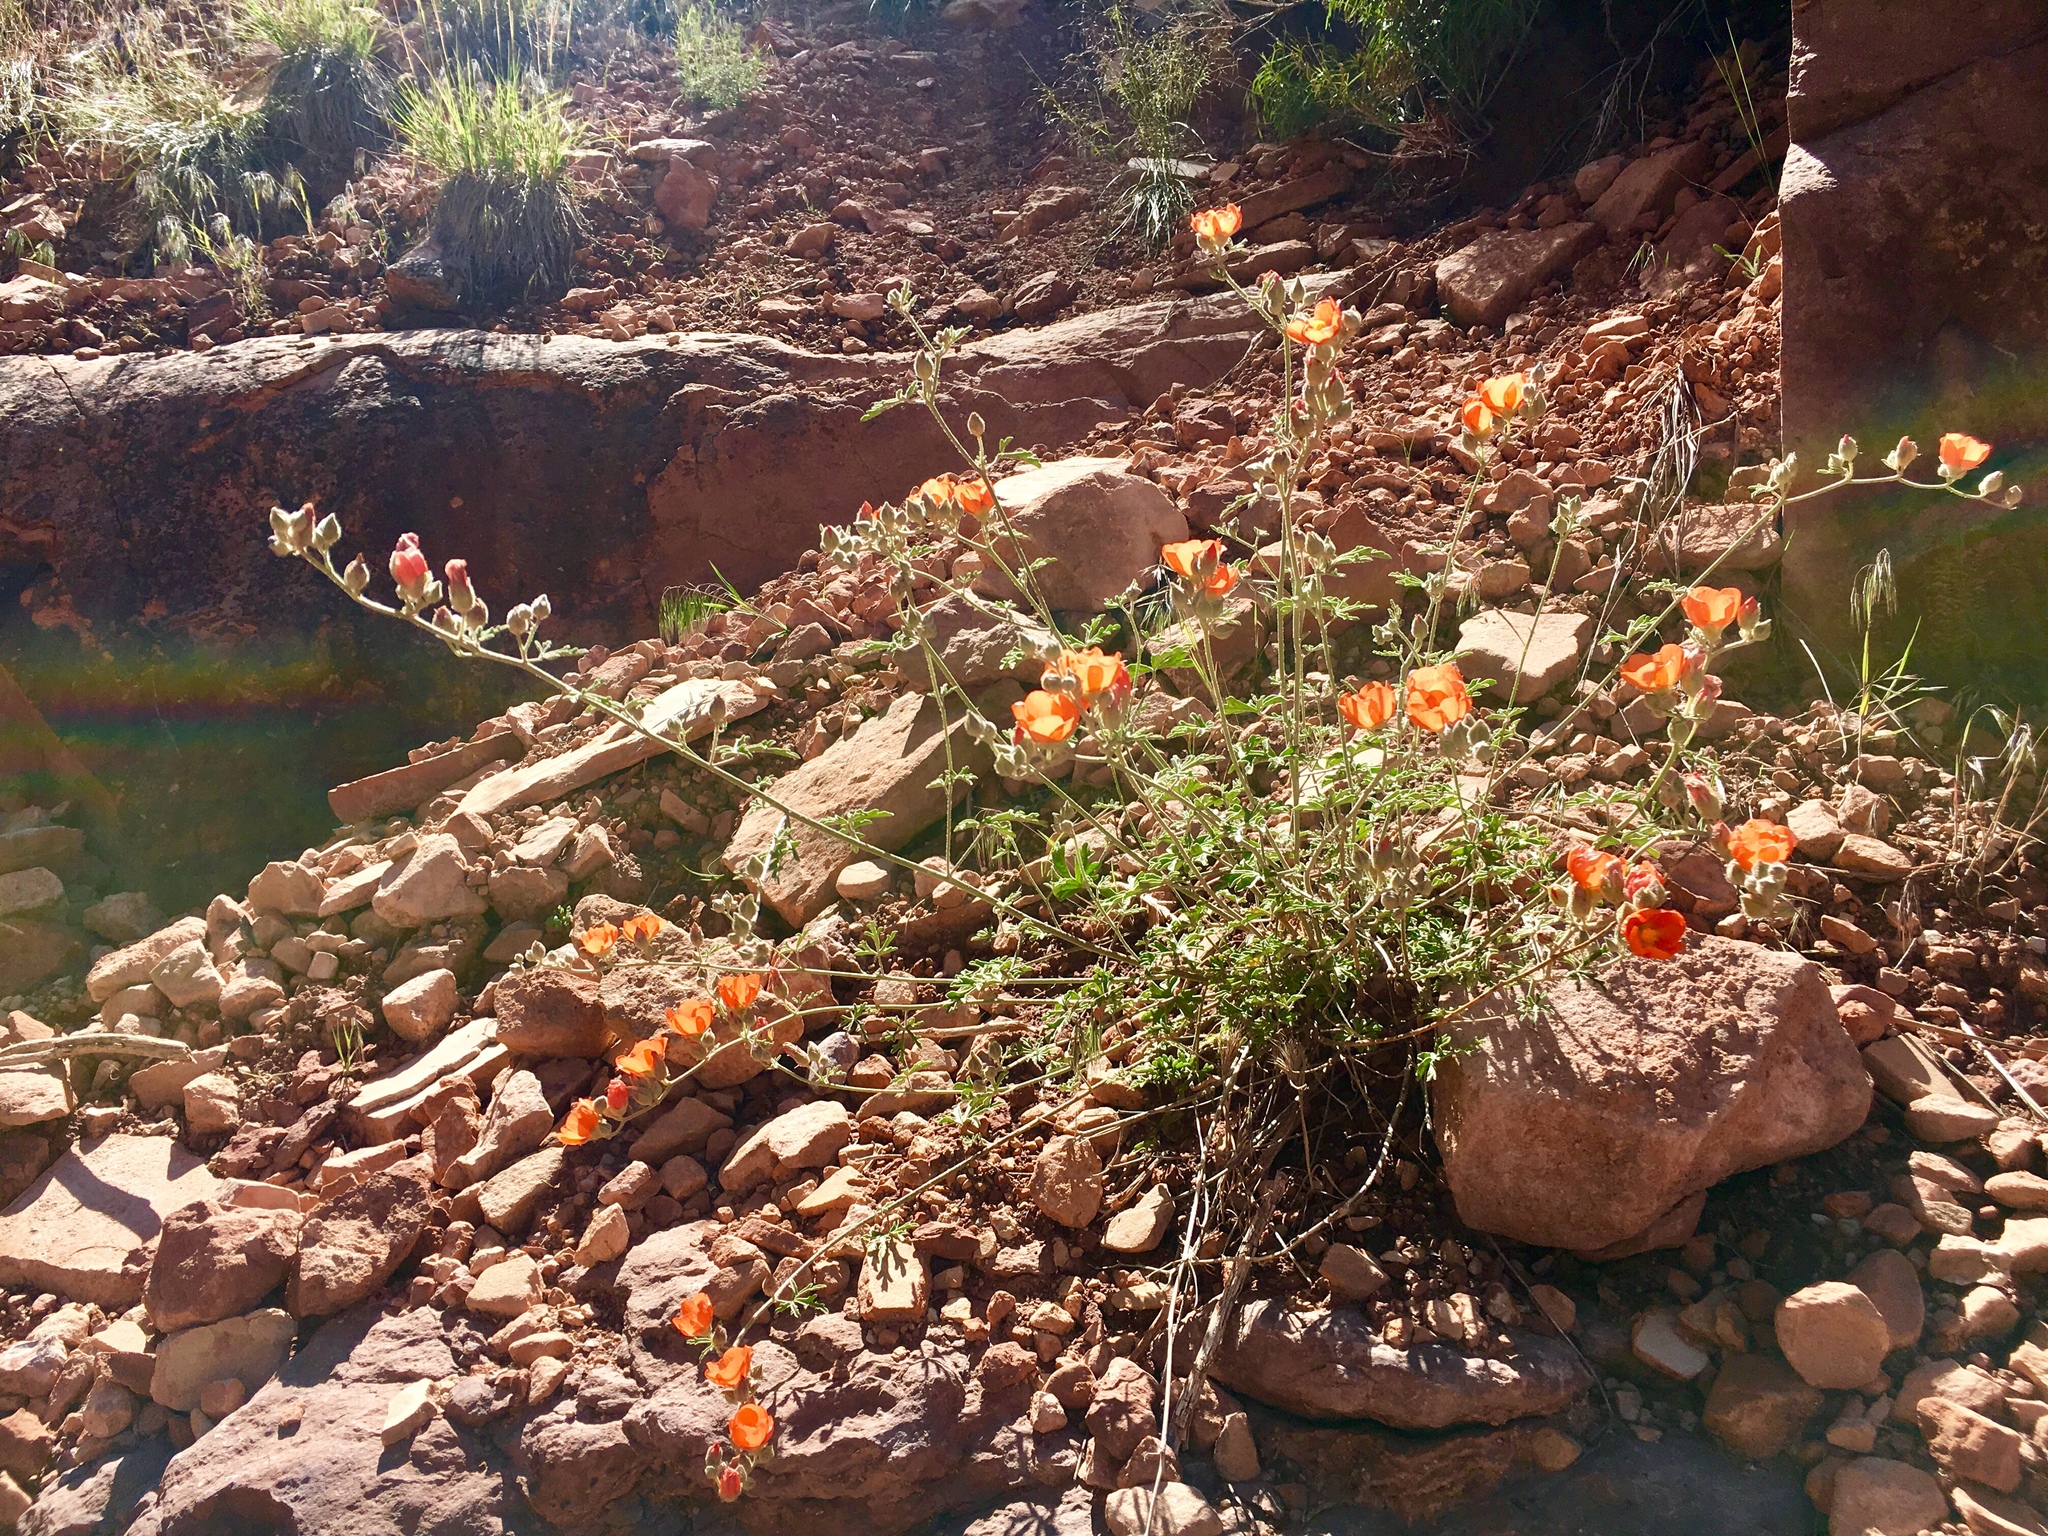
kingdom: Plantae
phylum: Tracheophyta
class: Magnoliopsida
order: Malvales
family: Malvaceae
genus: Sphaeralcea
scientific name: Sphaeralcea grossulariifolia
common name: Current-leaf globe-mallow
